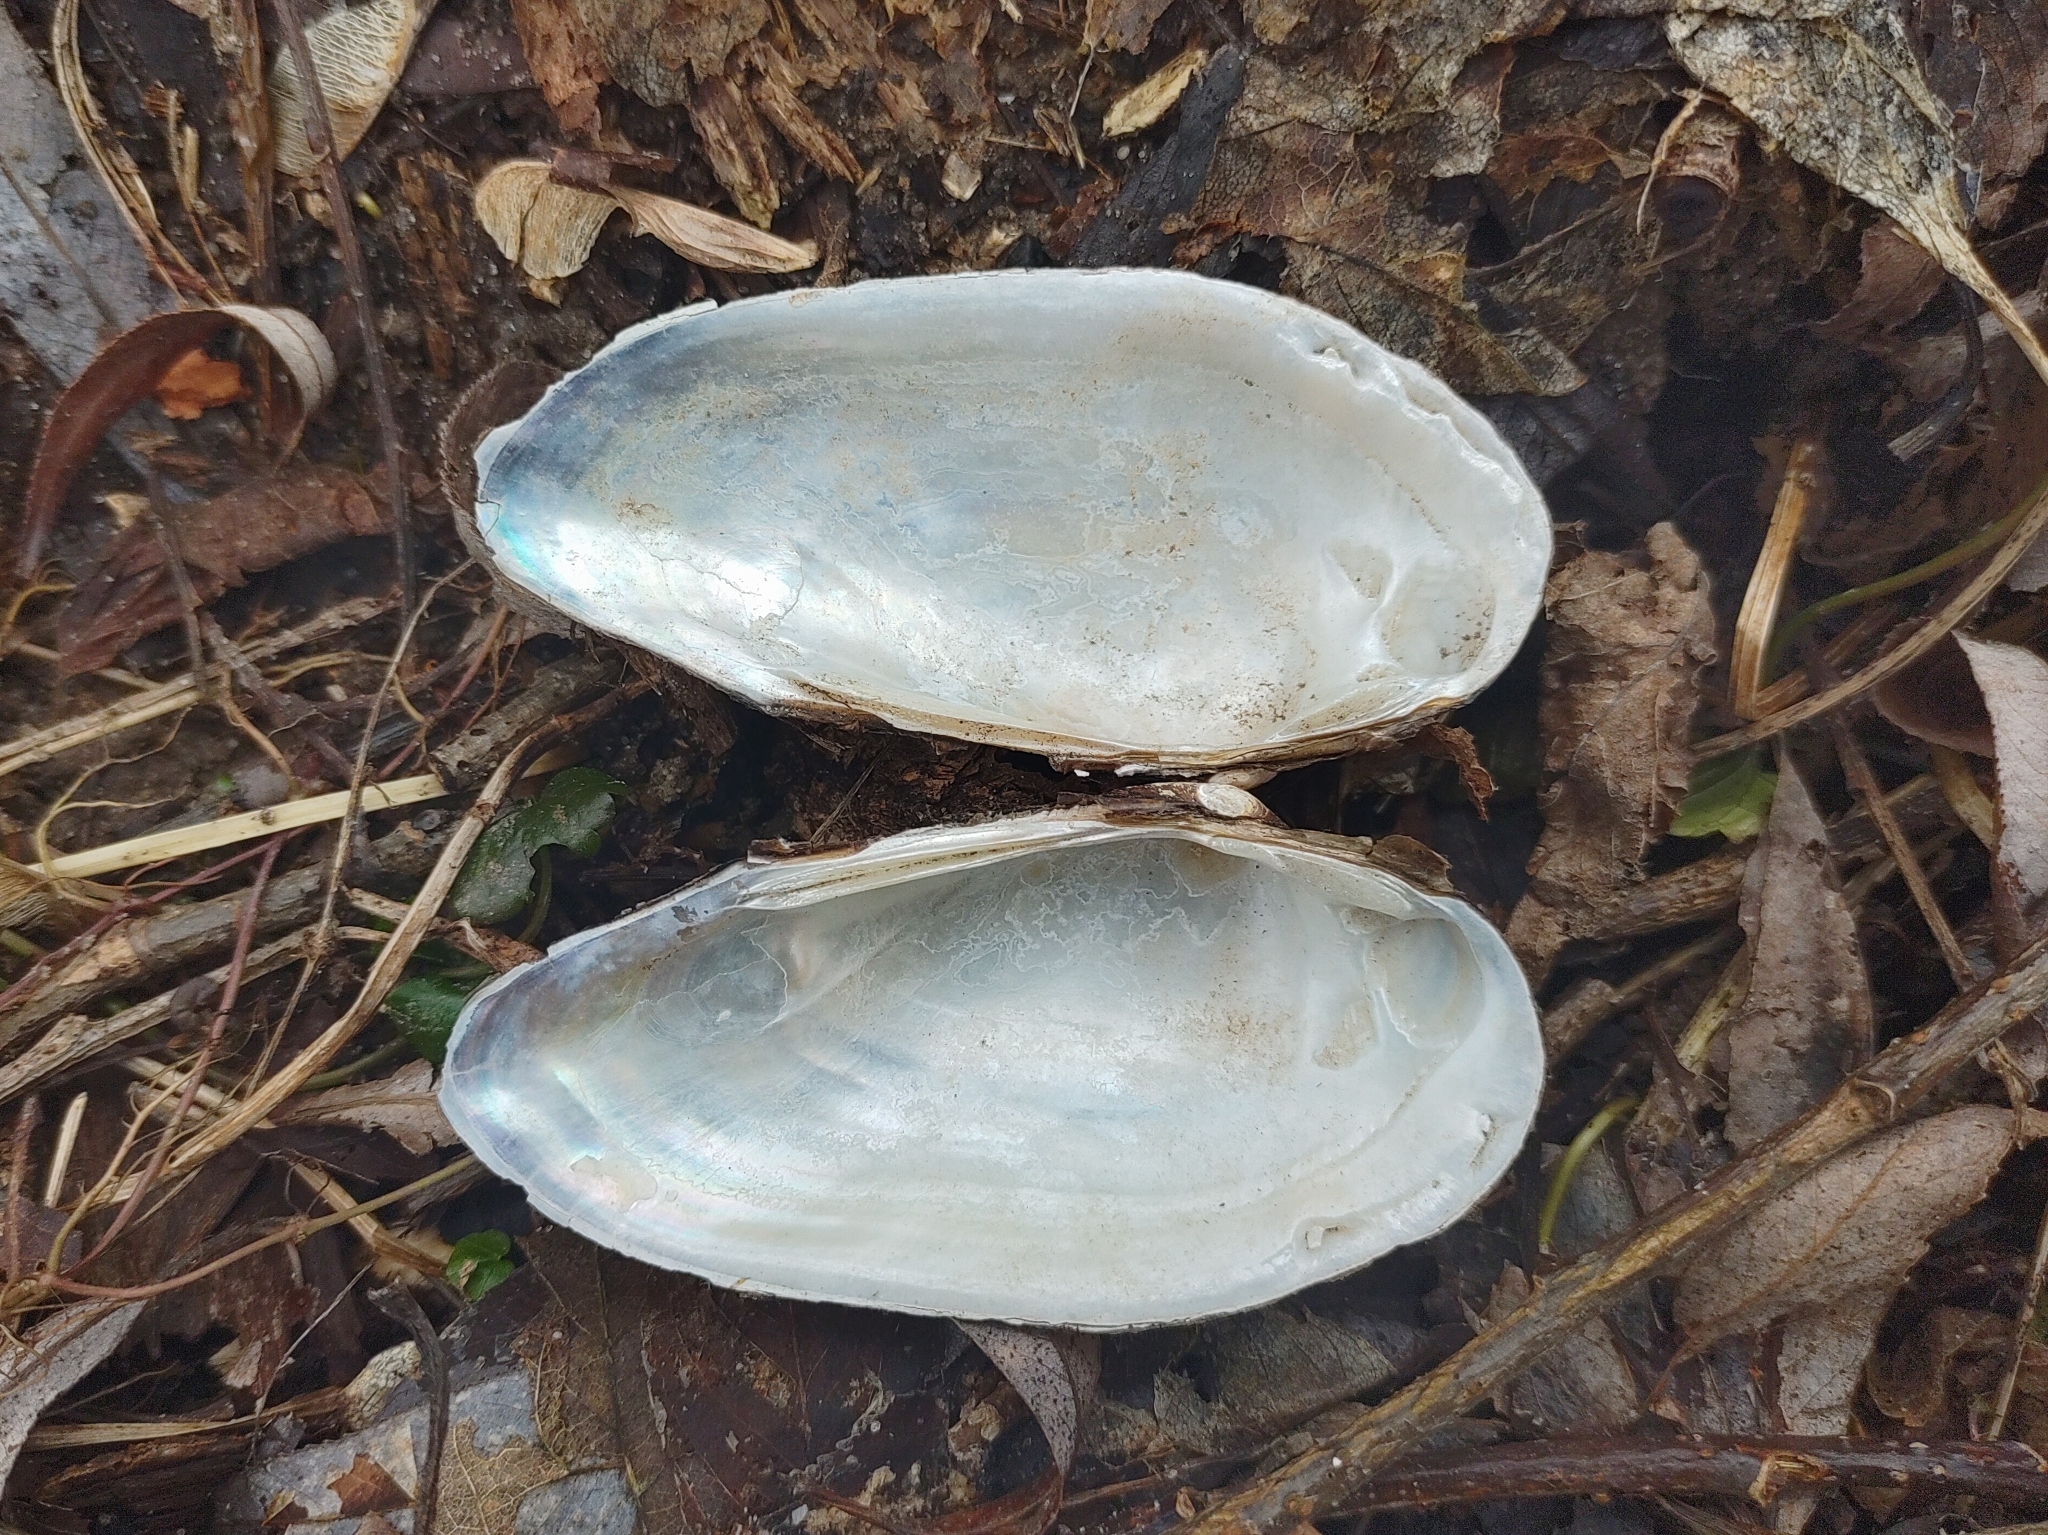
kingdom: Animalia
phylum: Mollusca
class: Bivalvia
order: Unionida
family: Unionidae
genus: Unio
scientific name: Unio tumidus
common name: Swollen river mussel
